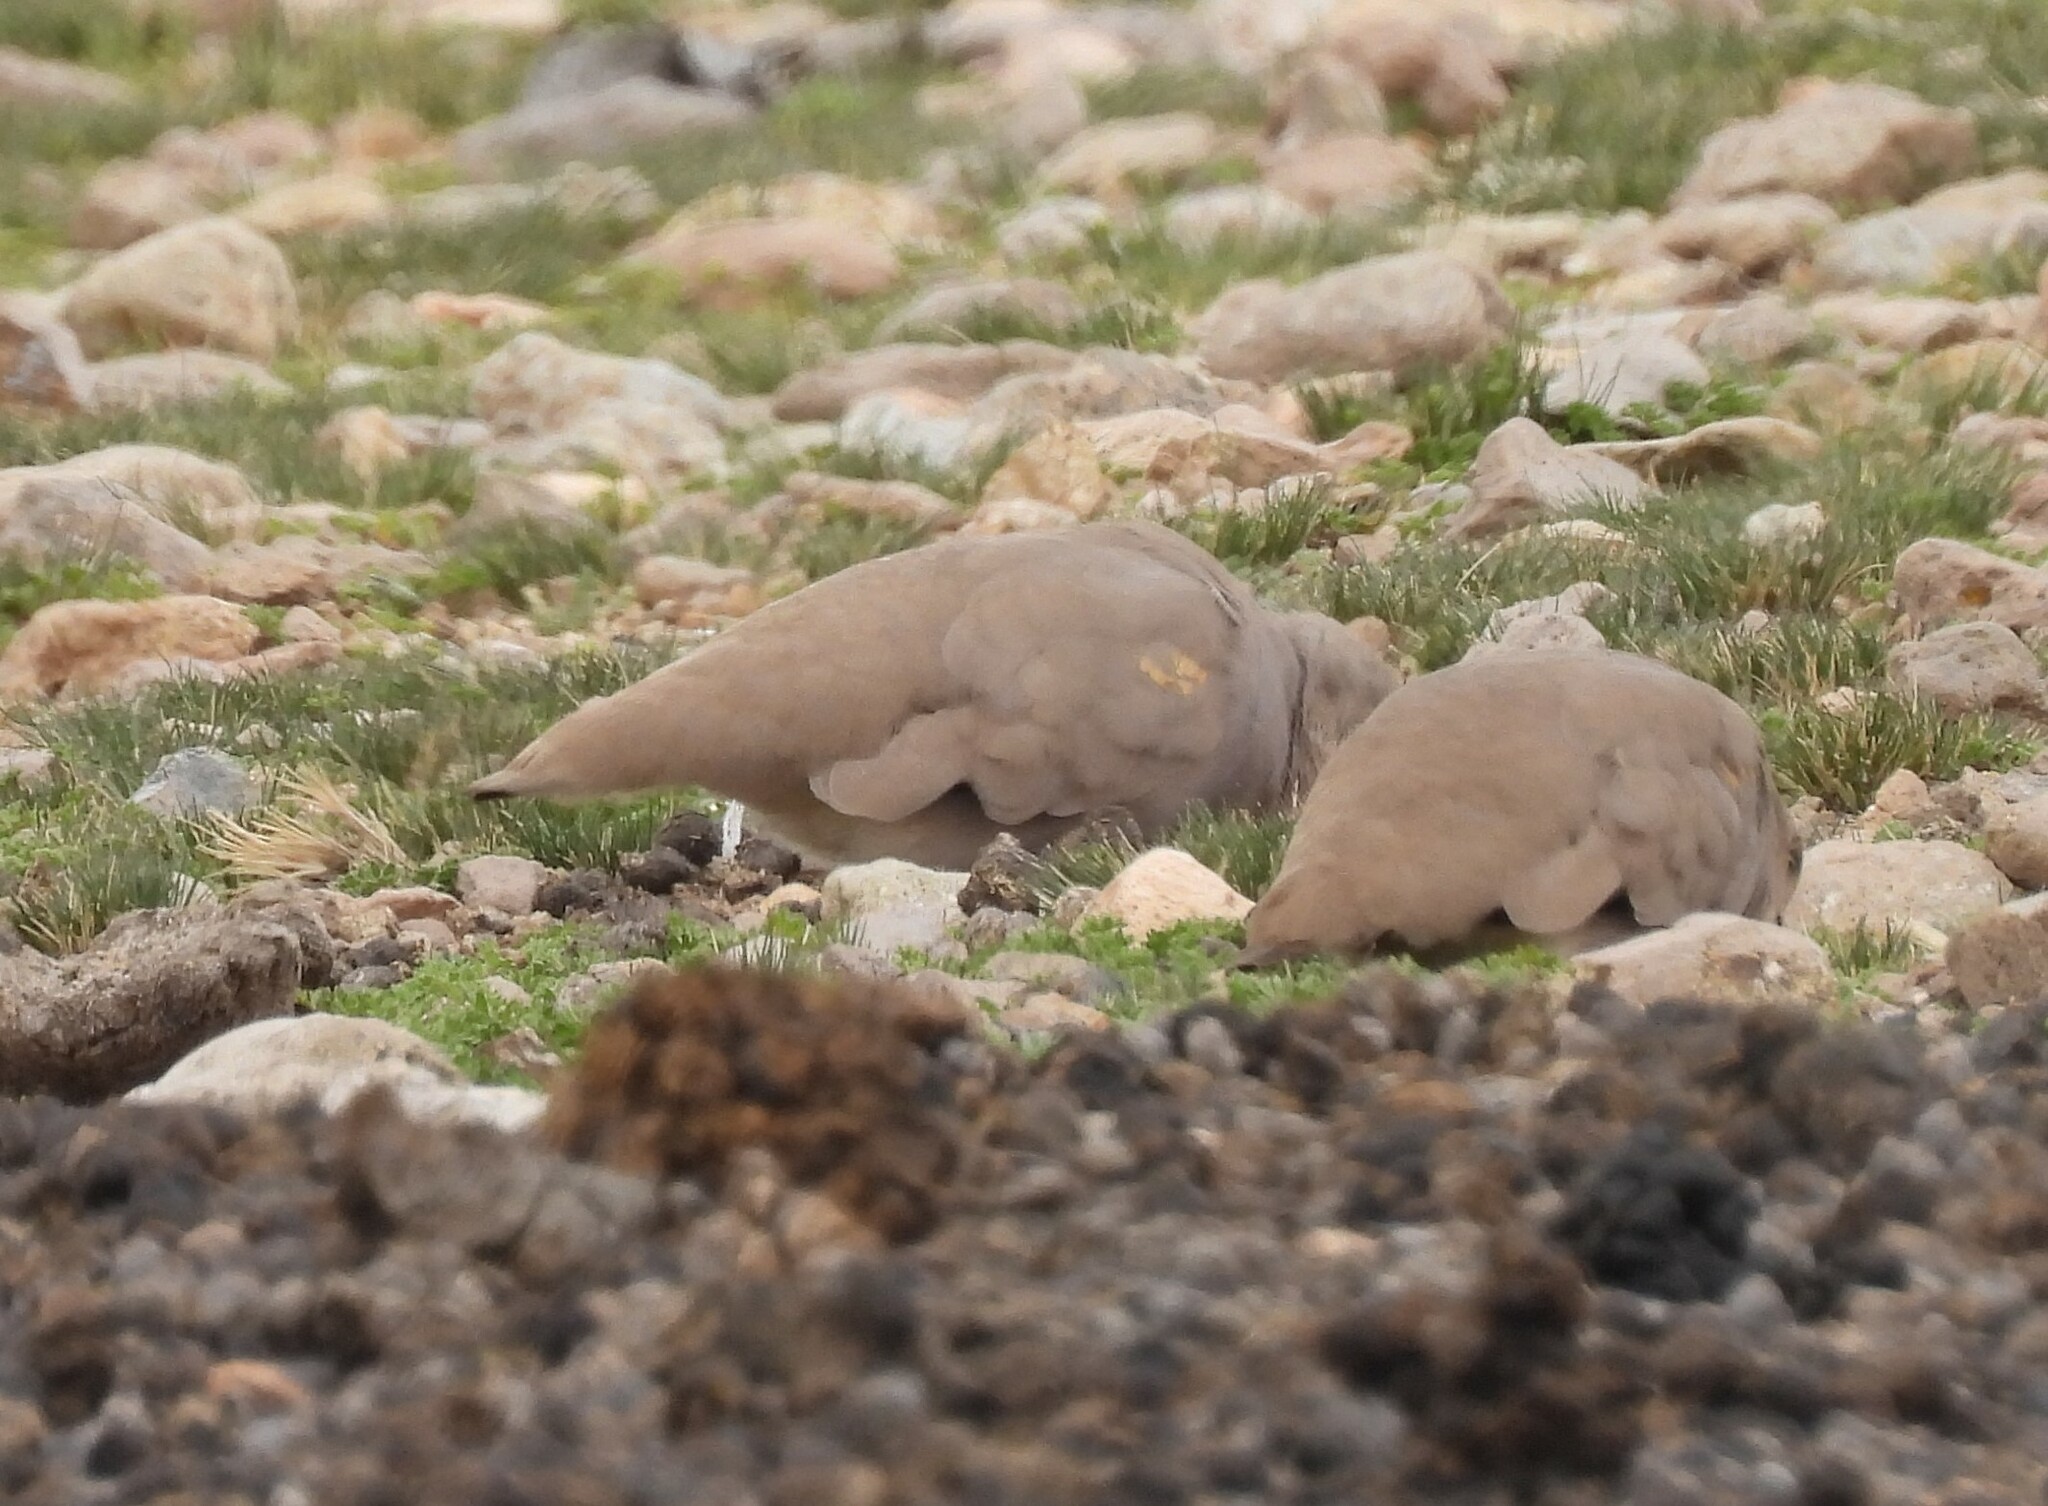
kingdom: Animalia
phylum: Chordata
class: Aves
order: Columbiformes
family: Columbidae
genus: Metriopelia
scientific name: Metriopelia aymara
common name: Golden-spotted ground dove
